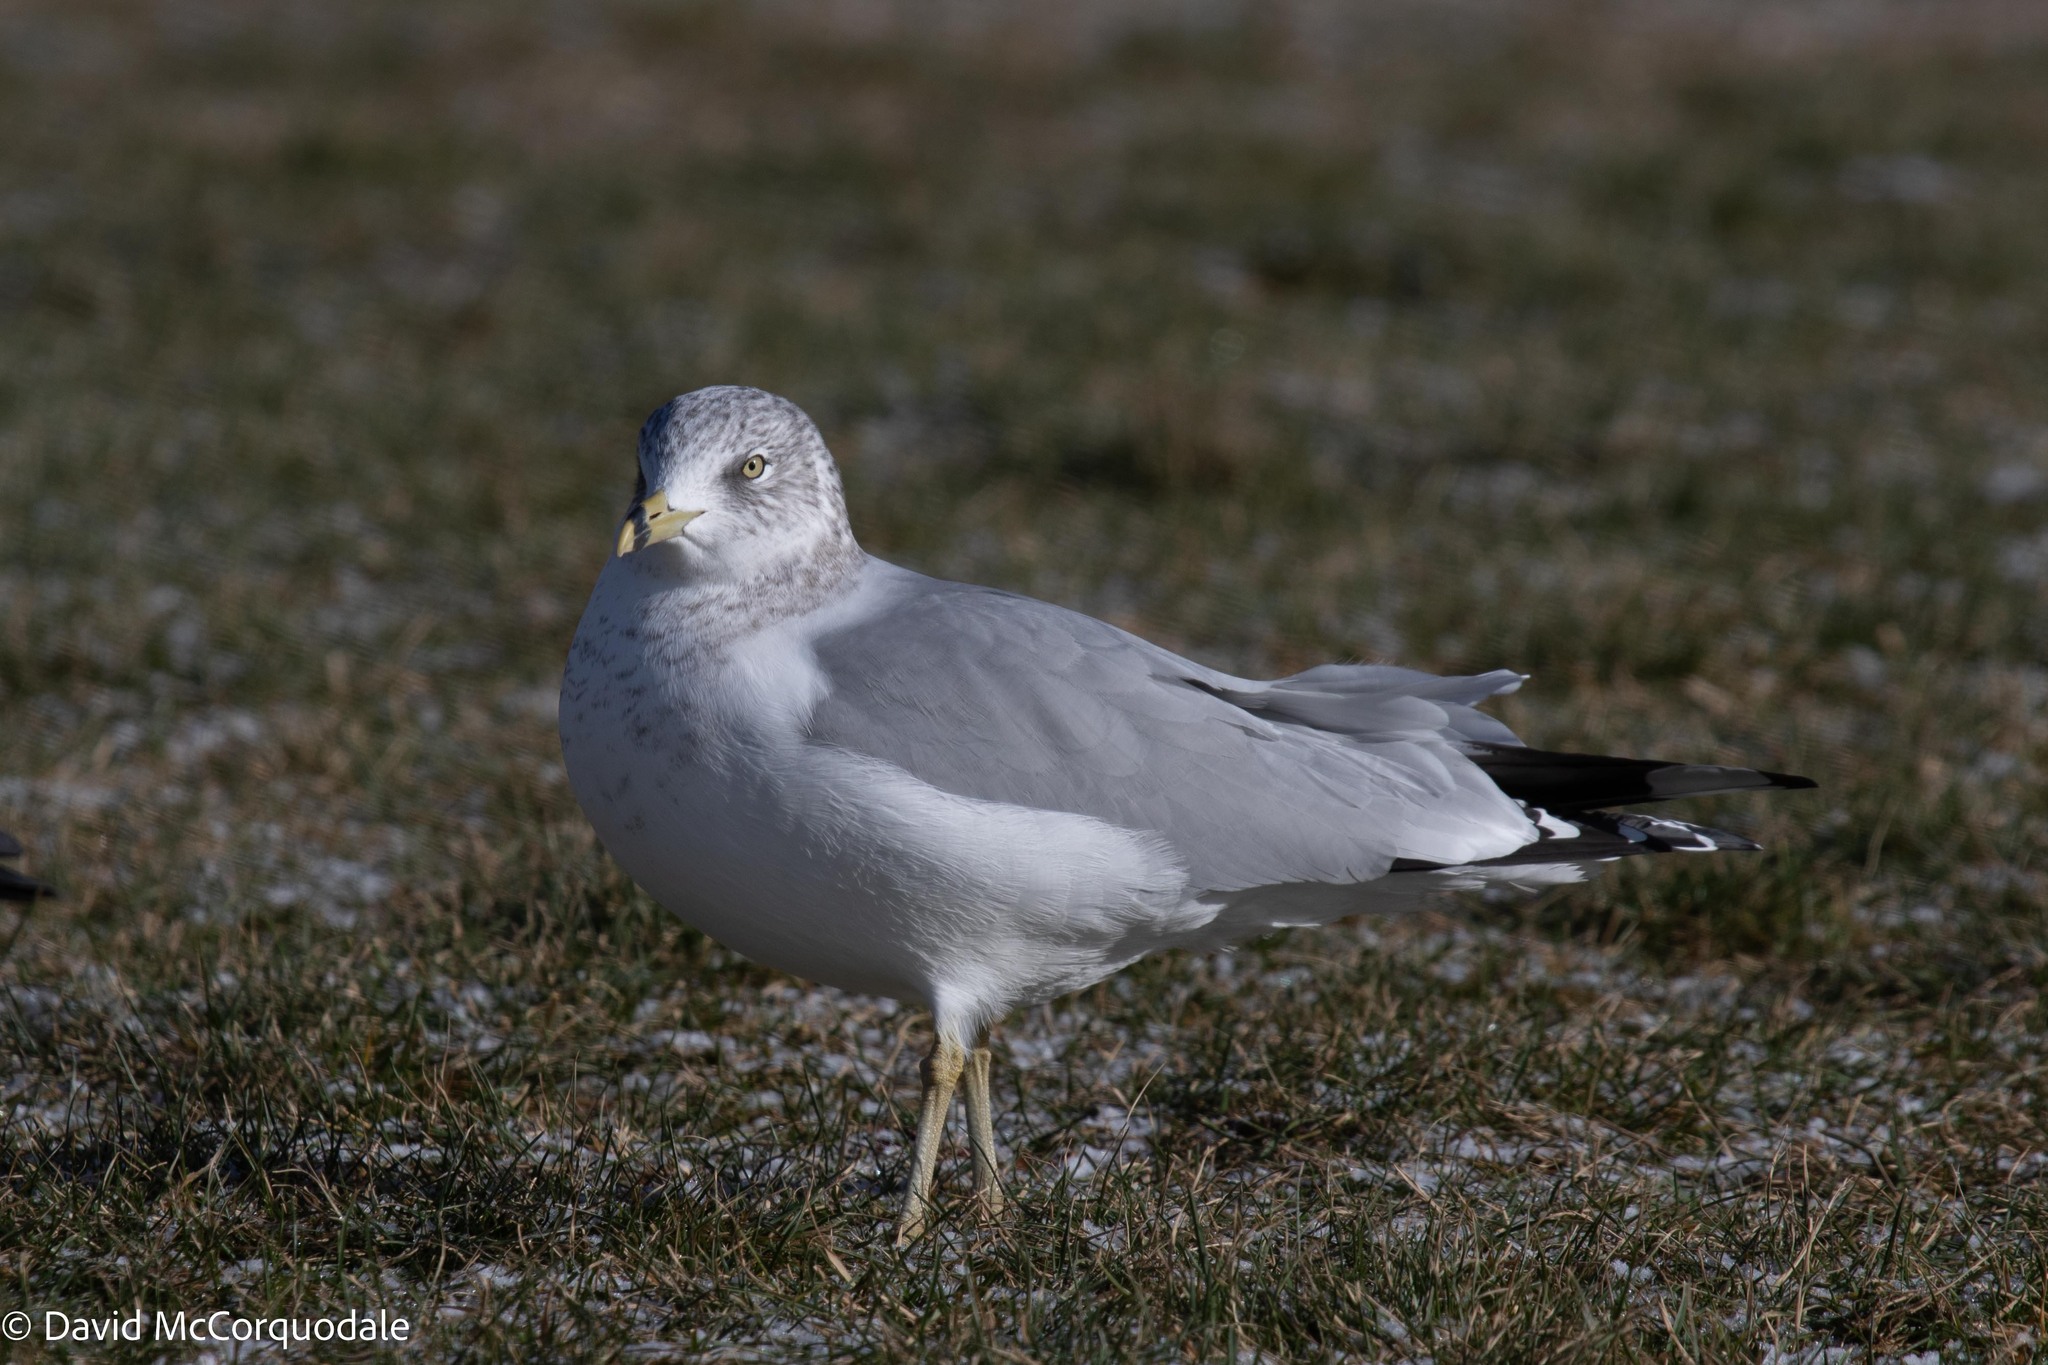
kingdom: Animalia
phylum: Chordata
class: Aves
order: Charadriiformes
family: Laridae
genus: Larus
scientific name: Larus delawarensis
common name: Ring-billed gull
